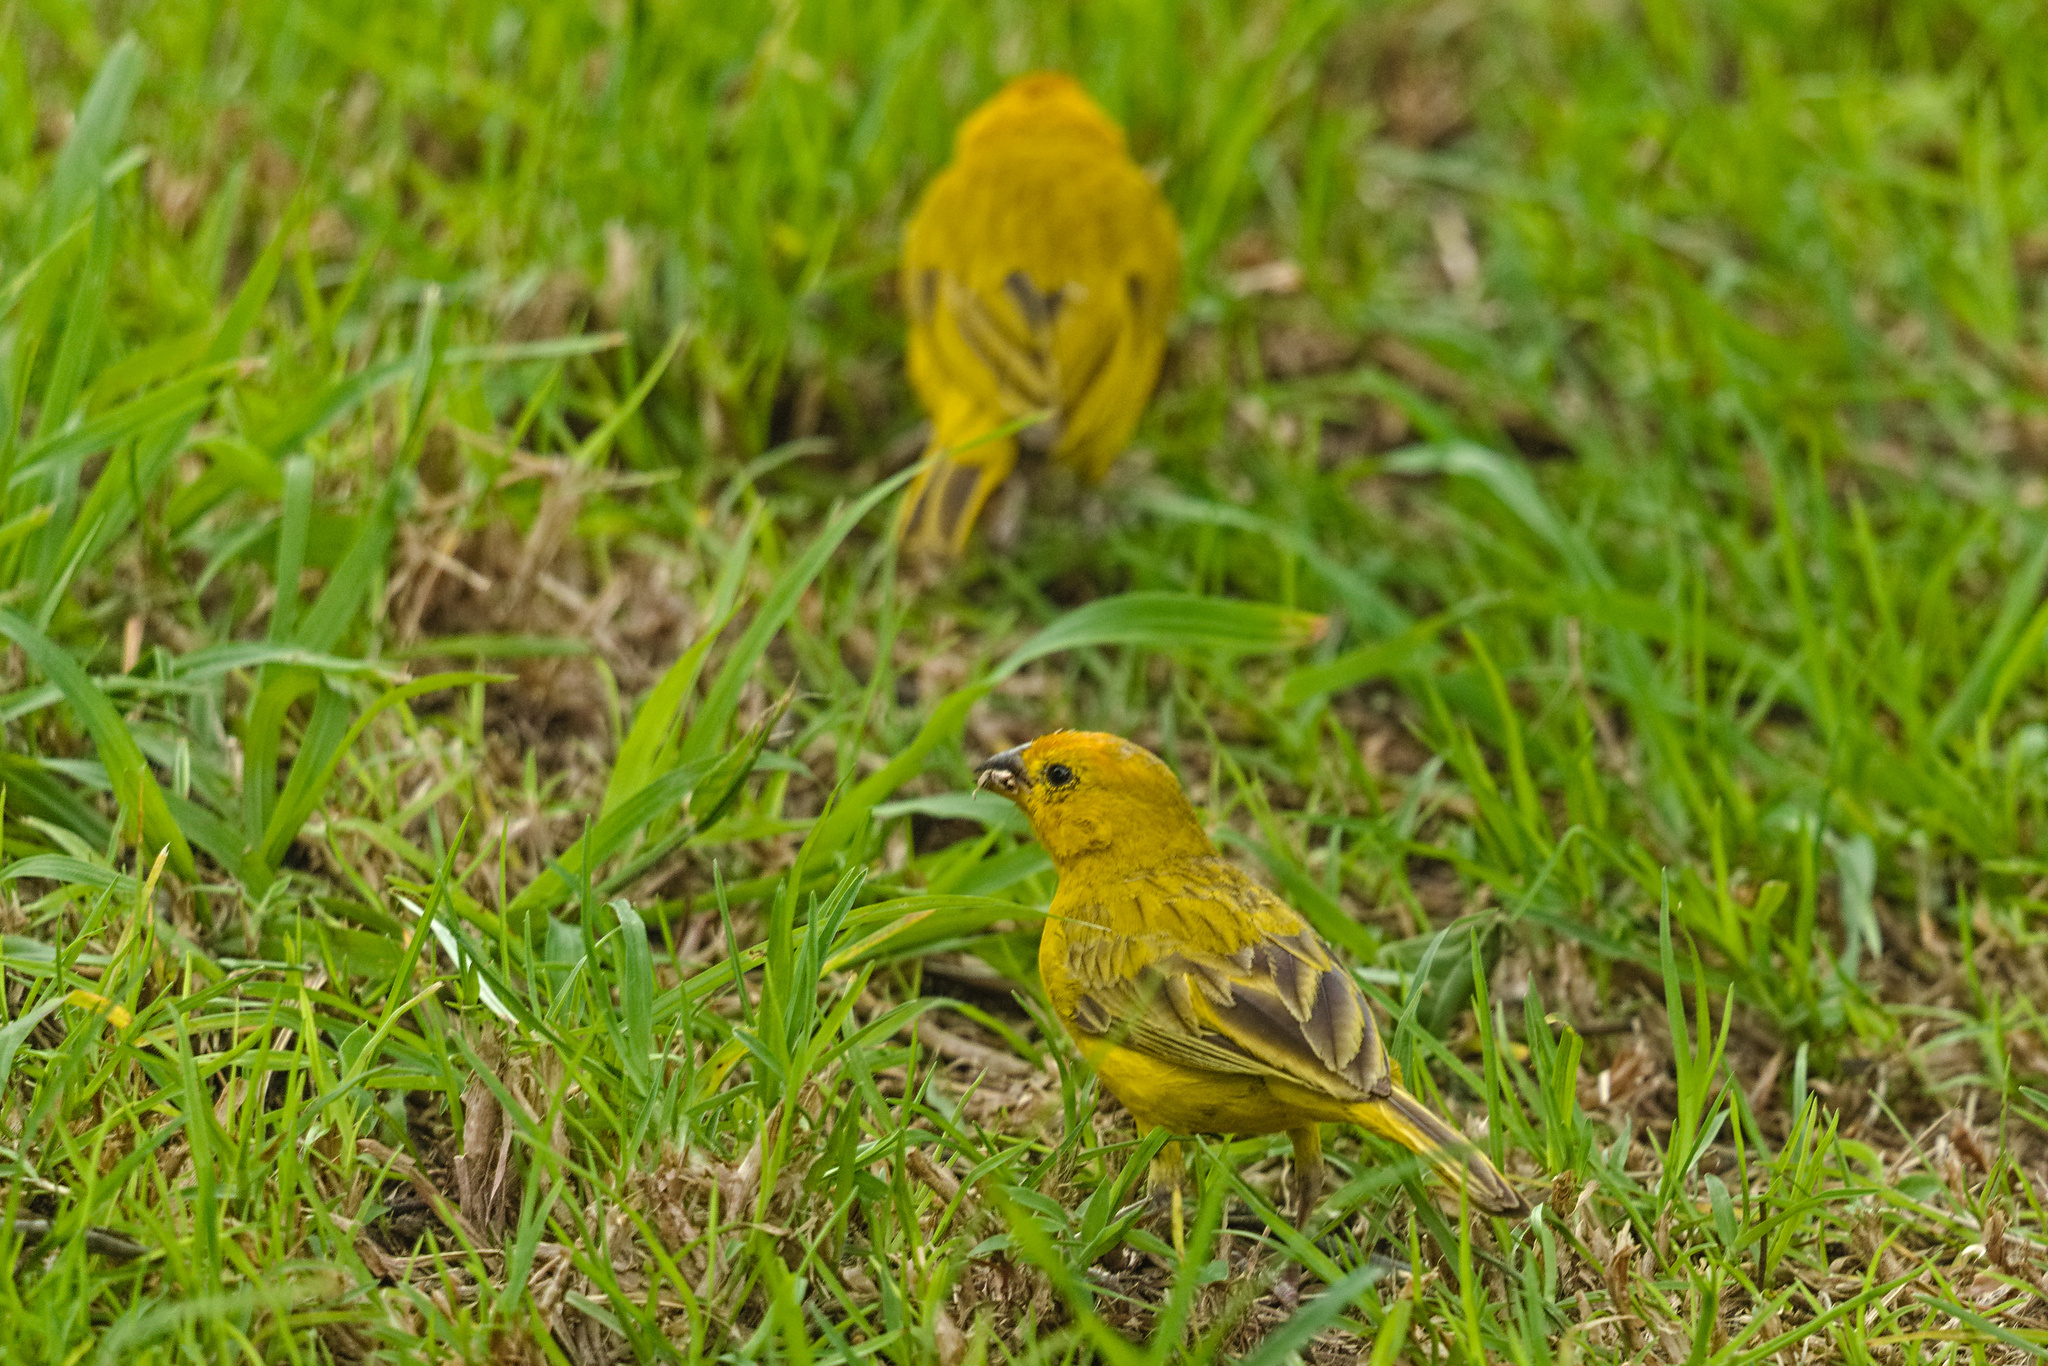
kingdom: Animalia
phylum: Chordata
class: Aves
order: Passeriformes
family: Thraupidae
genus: Sicalis
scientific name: Sicalis flaveola
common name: Saffron finch
